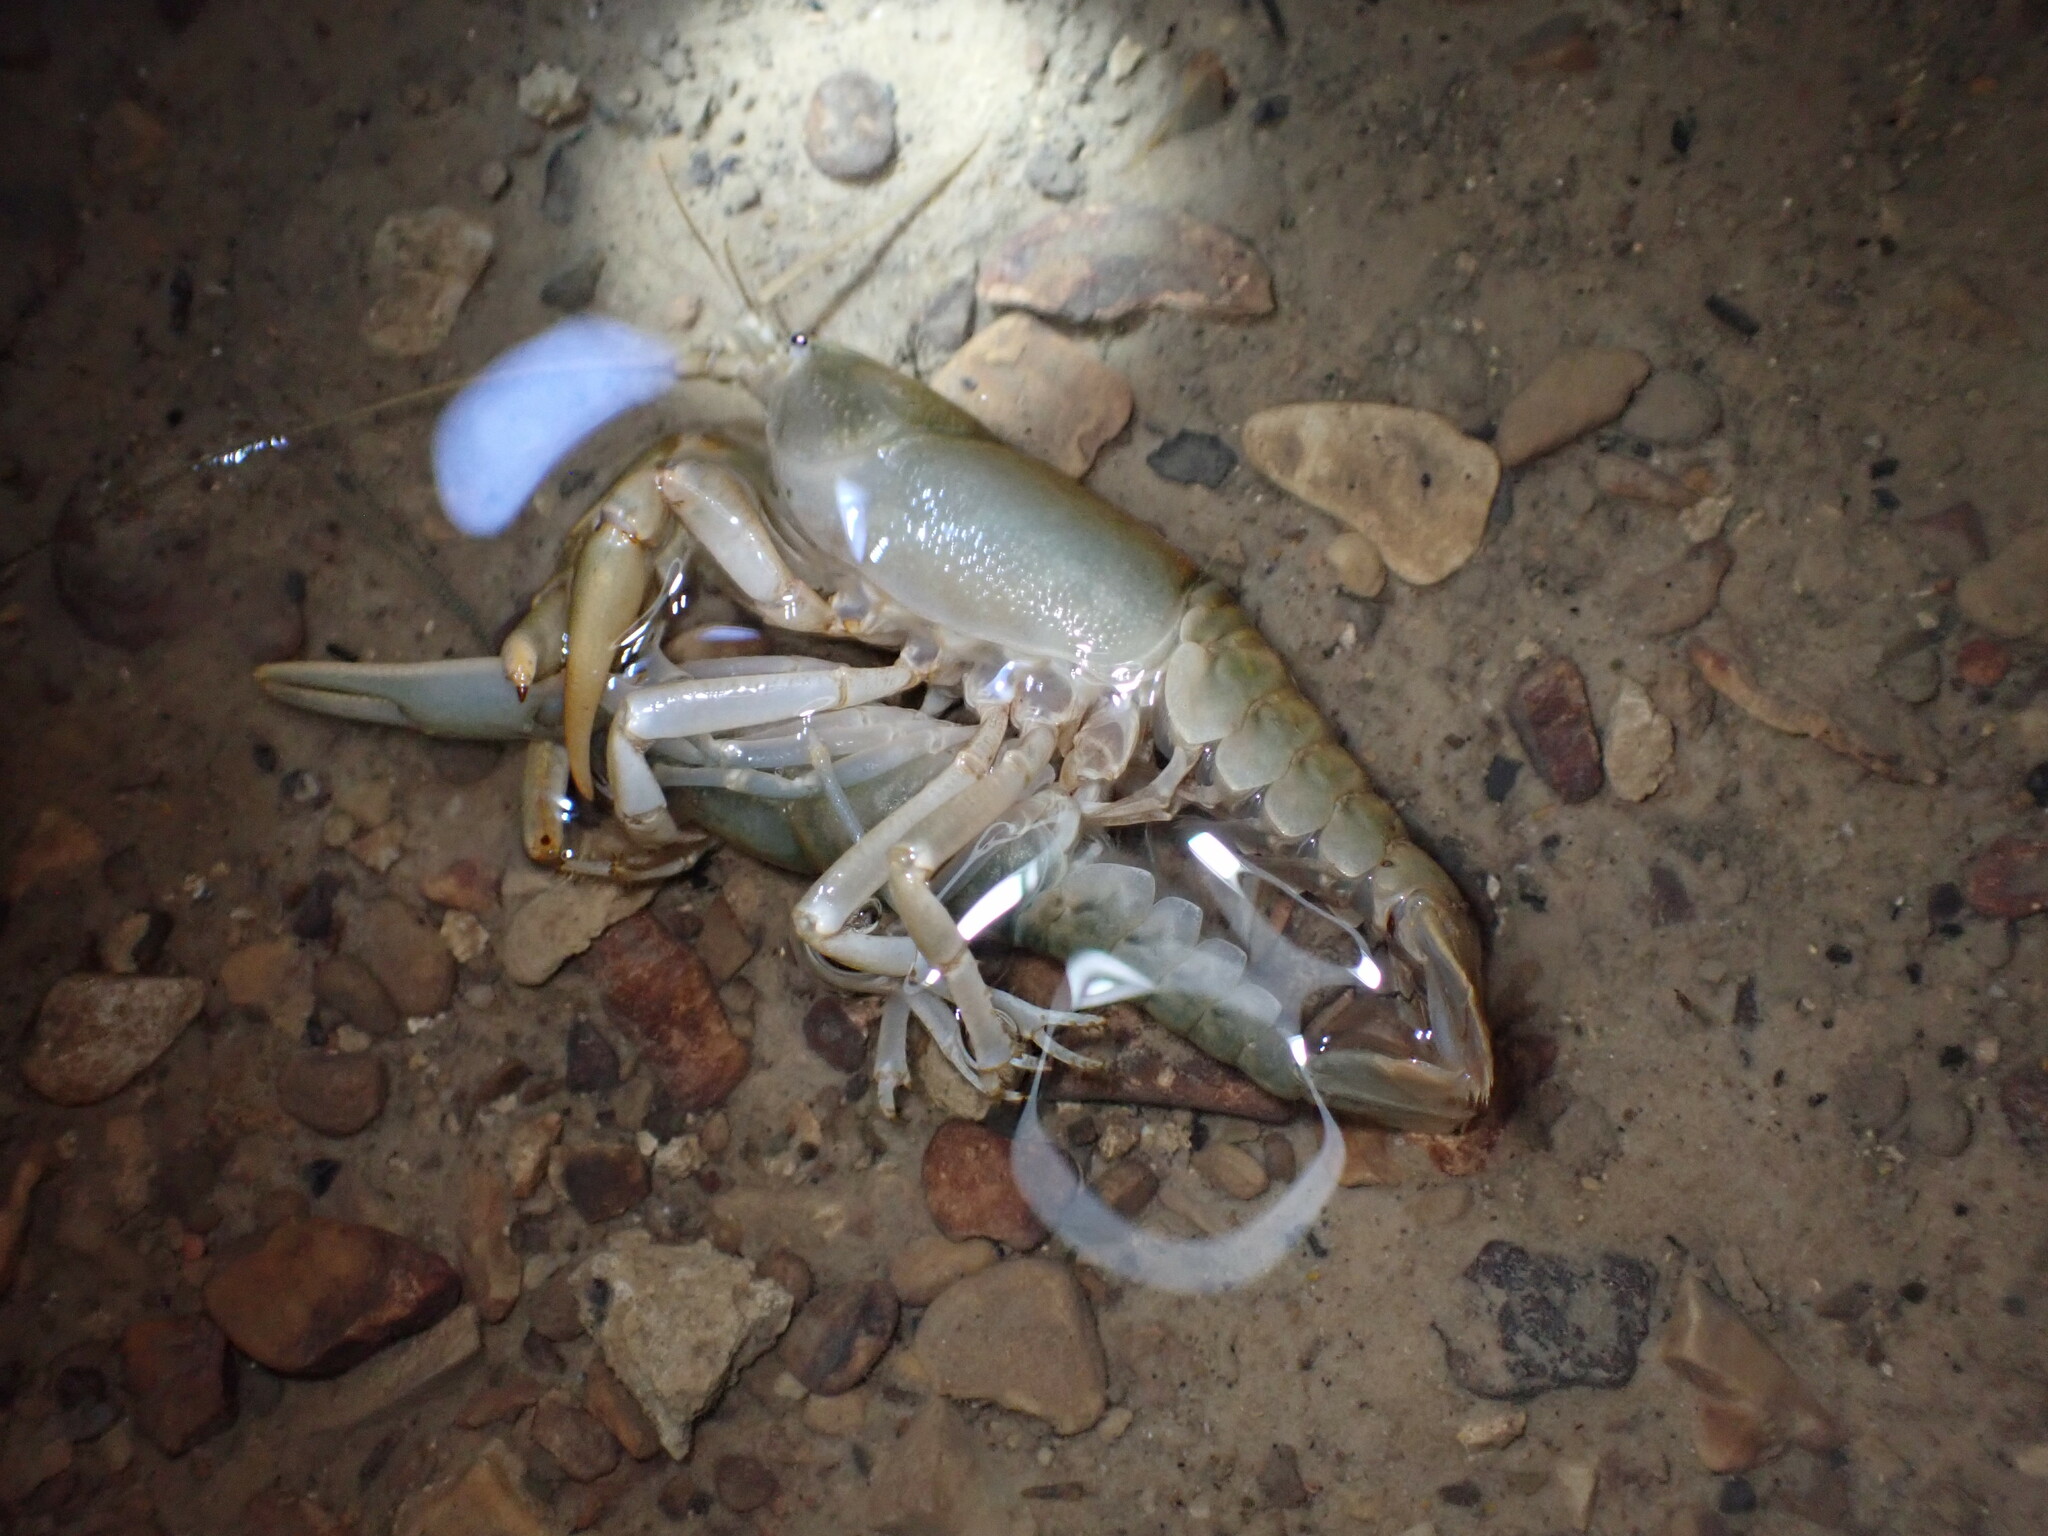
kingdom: Animalia
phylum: Arthropoda
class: Malacostraca
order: Decapoda
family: Cambaridae
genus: Cambarus
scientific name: Cambarus tenebrosus
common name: Cavespring crayfish
